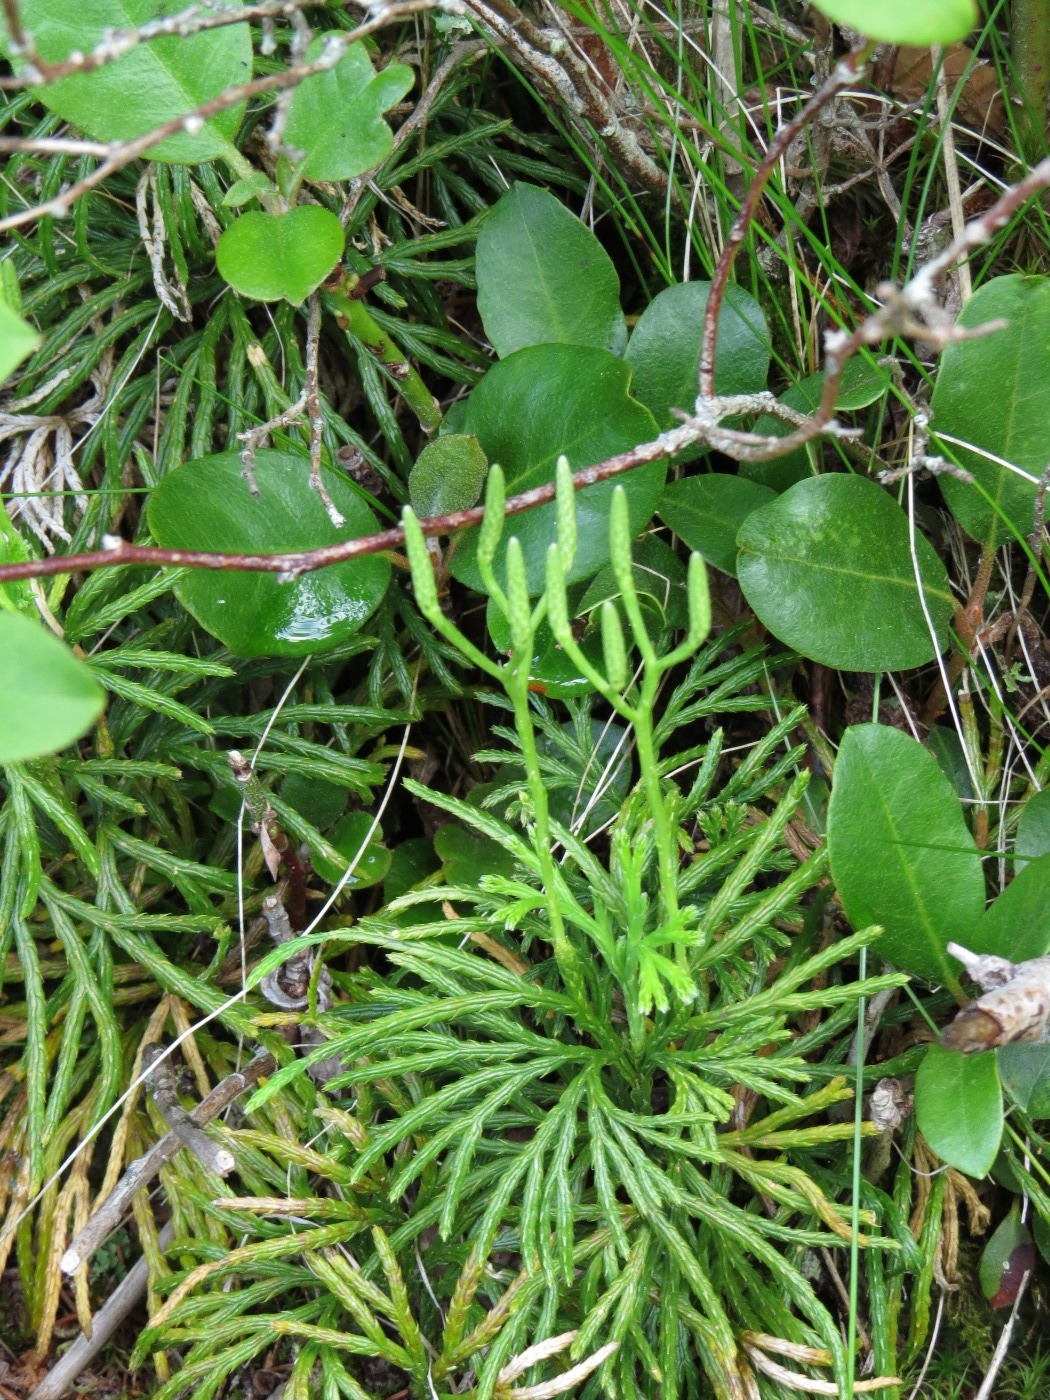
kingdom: Plantae
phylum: Tracheophyta
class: Lycopodiopsida
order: Lycopodiales
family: Lycopodiaceae
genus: Dendrolycopodium
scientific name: Dendrolycopodium obscurum
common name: Common ground-pine
